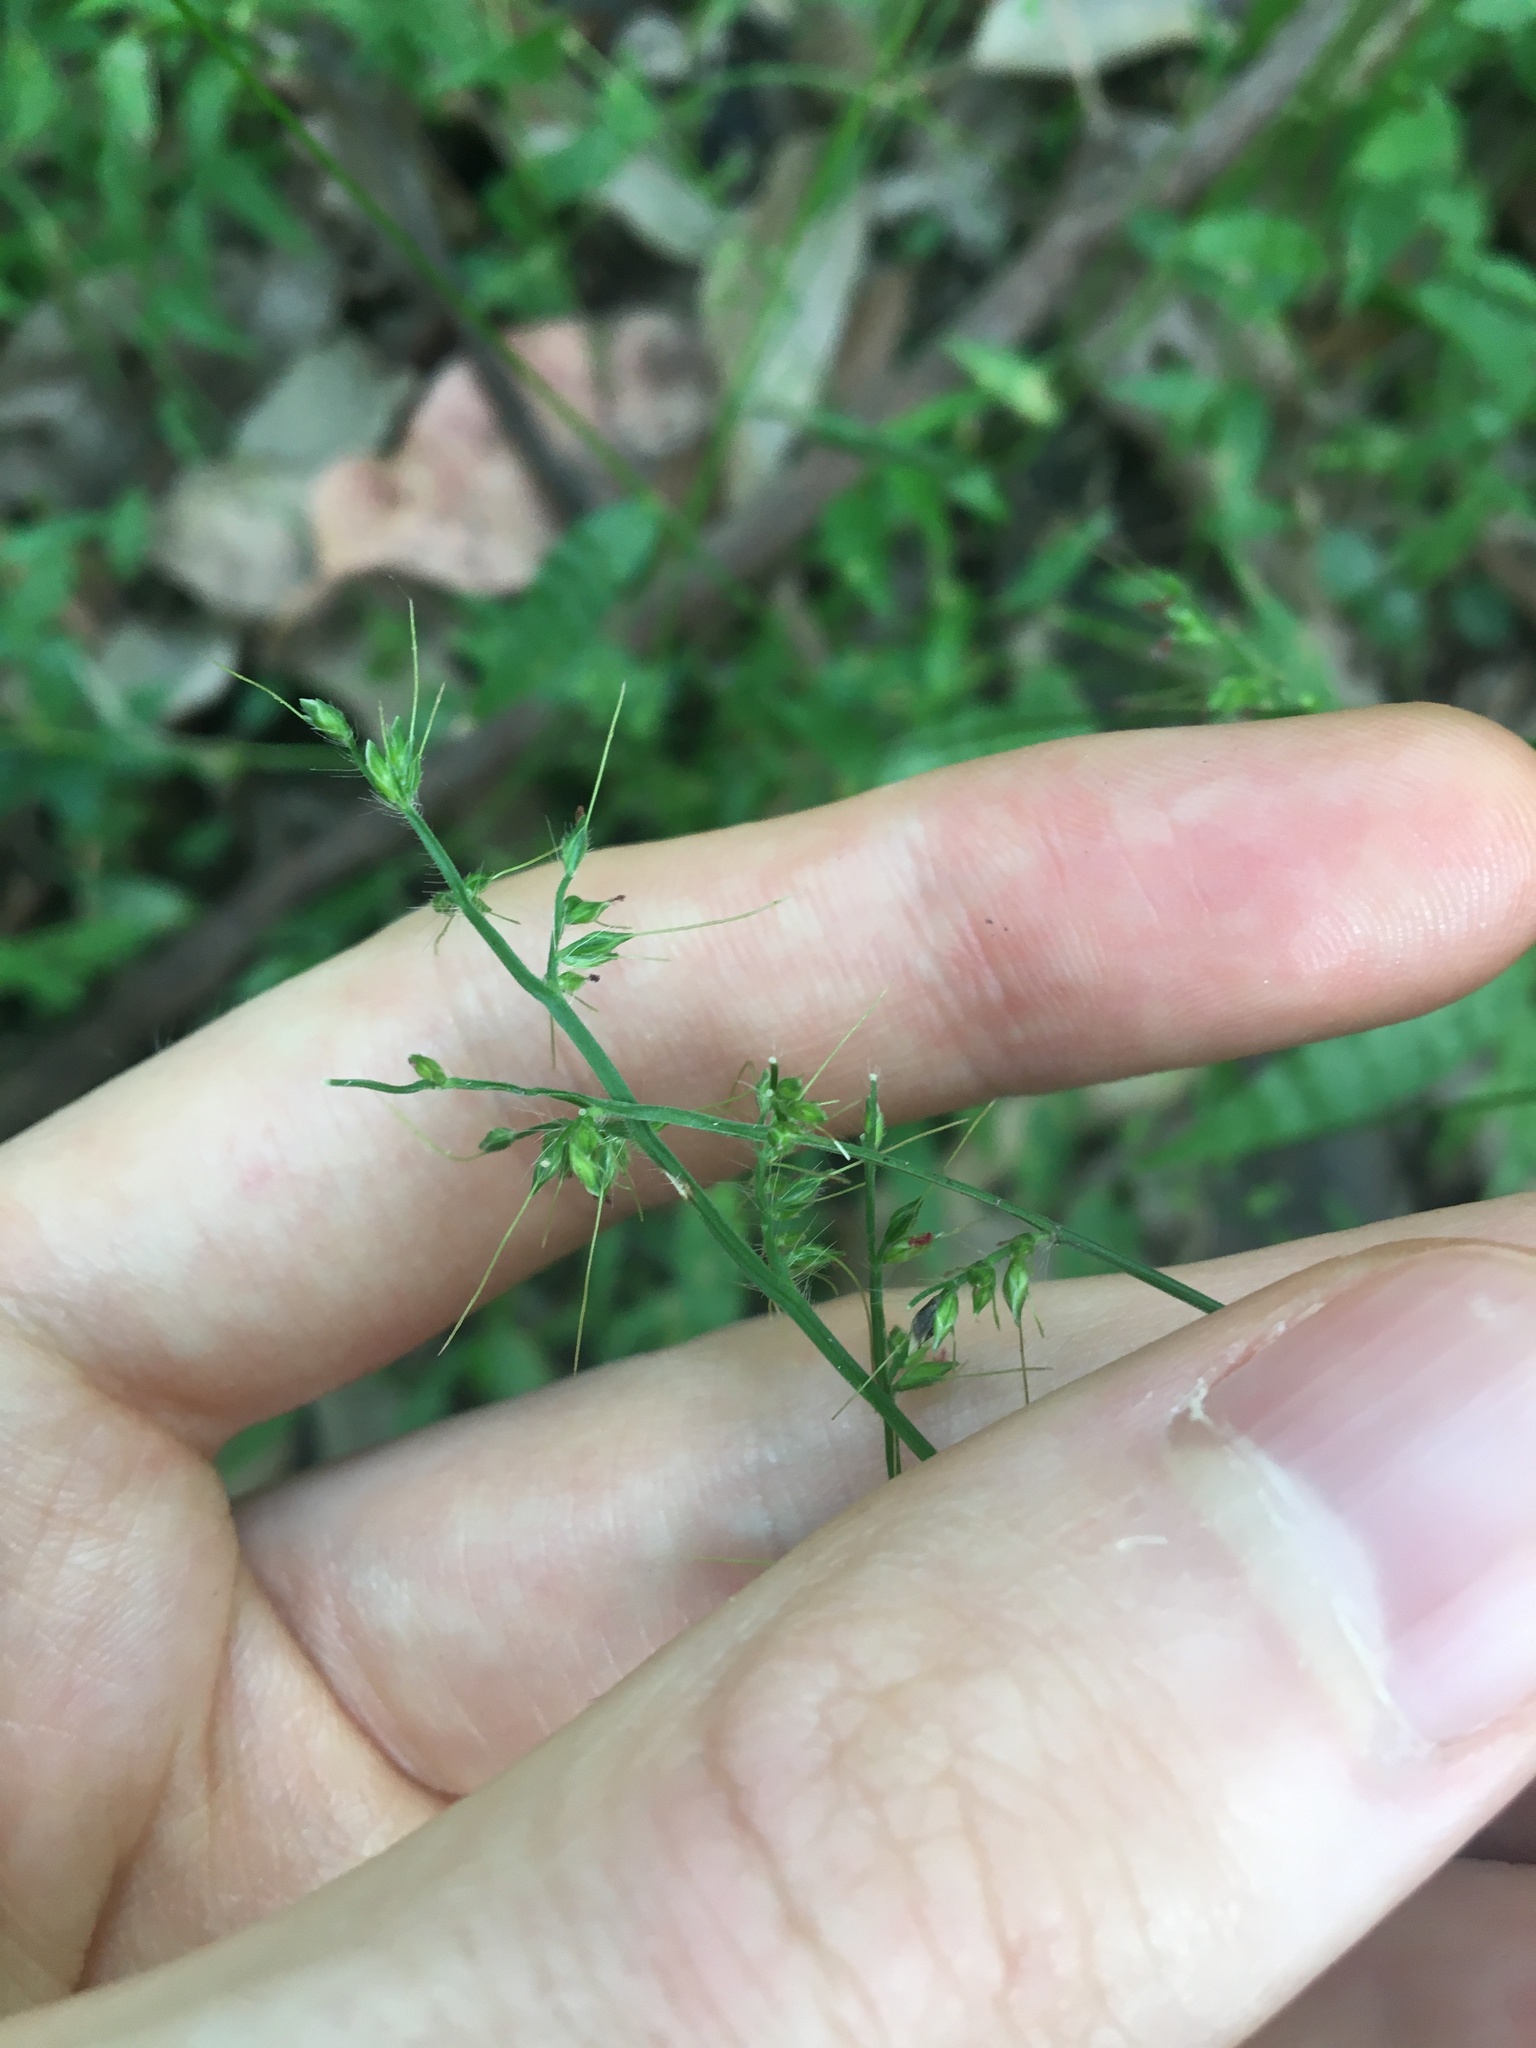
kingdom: Plantae
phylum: Tracheophyta
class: Liliopsida
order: Poales
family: Poaceae
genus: Oplismenus
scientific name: Oplismenus hirtellus
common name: Basketgrass
